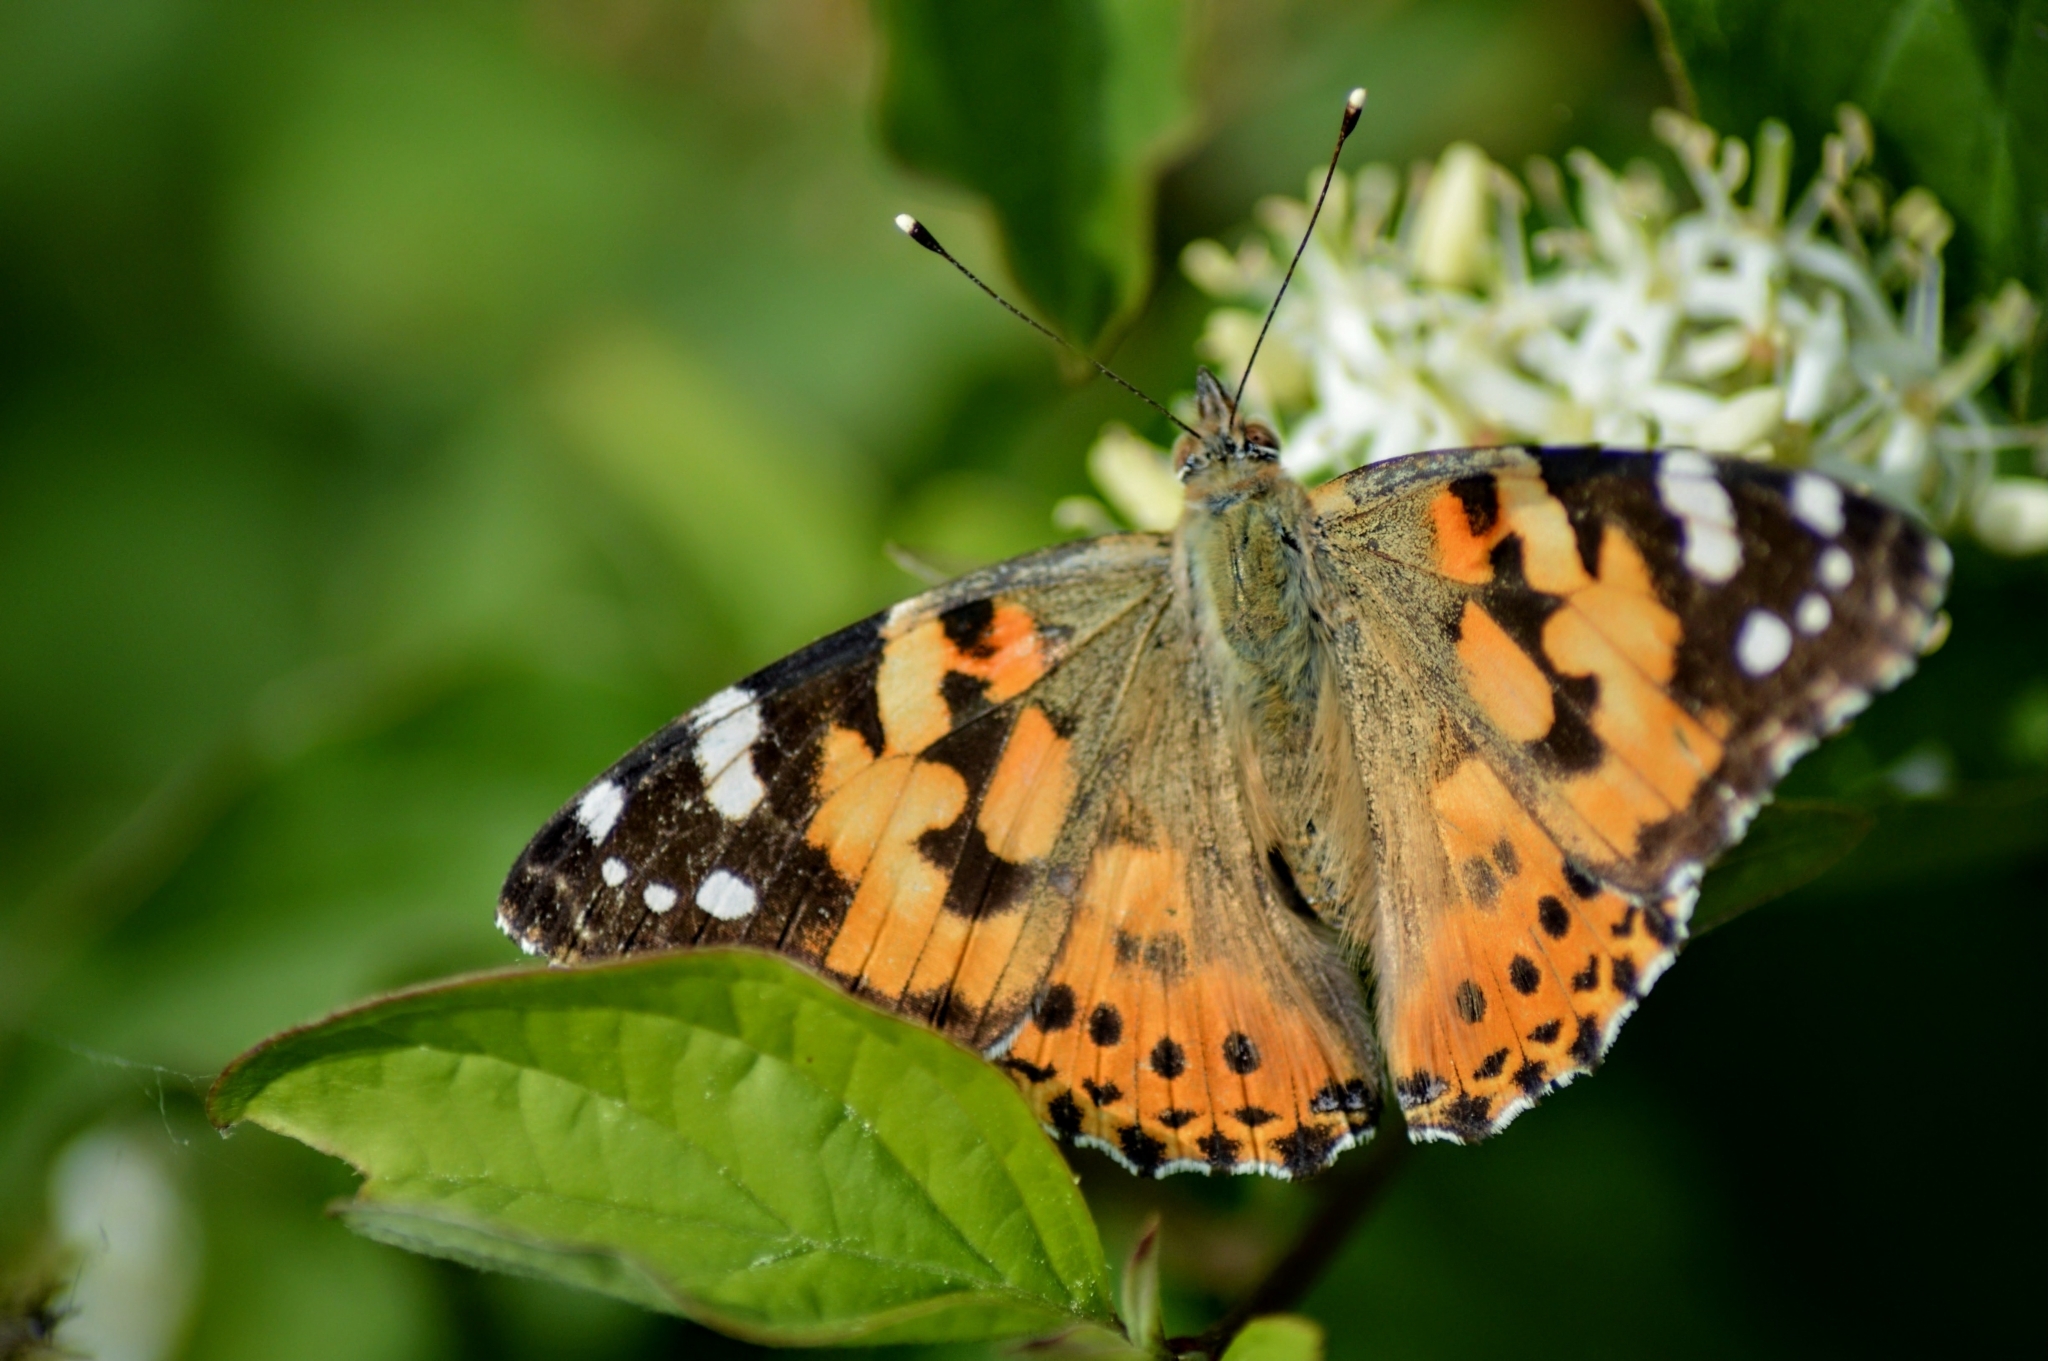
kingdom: Animalia
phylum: Arthropoda
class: Insecta
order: Lepidoptera
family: Nymphalidae
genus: Vanessa
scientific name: Vanessa cardui
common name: Painted lady
